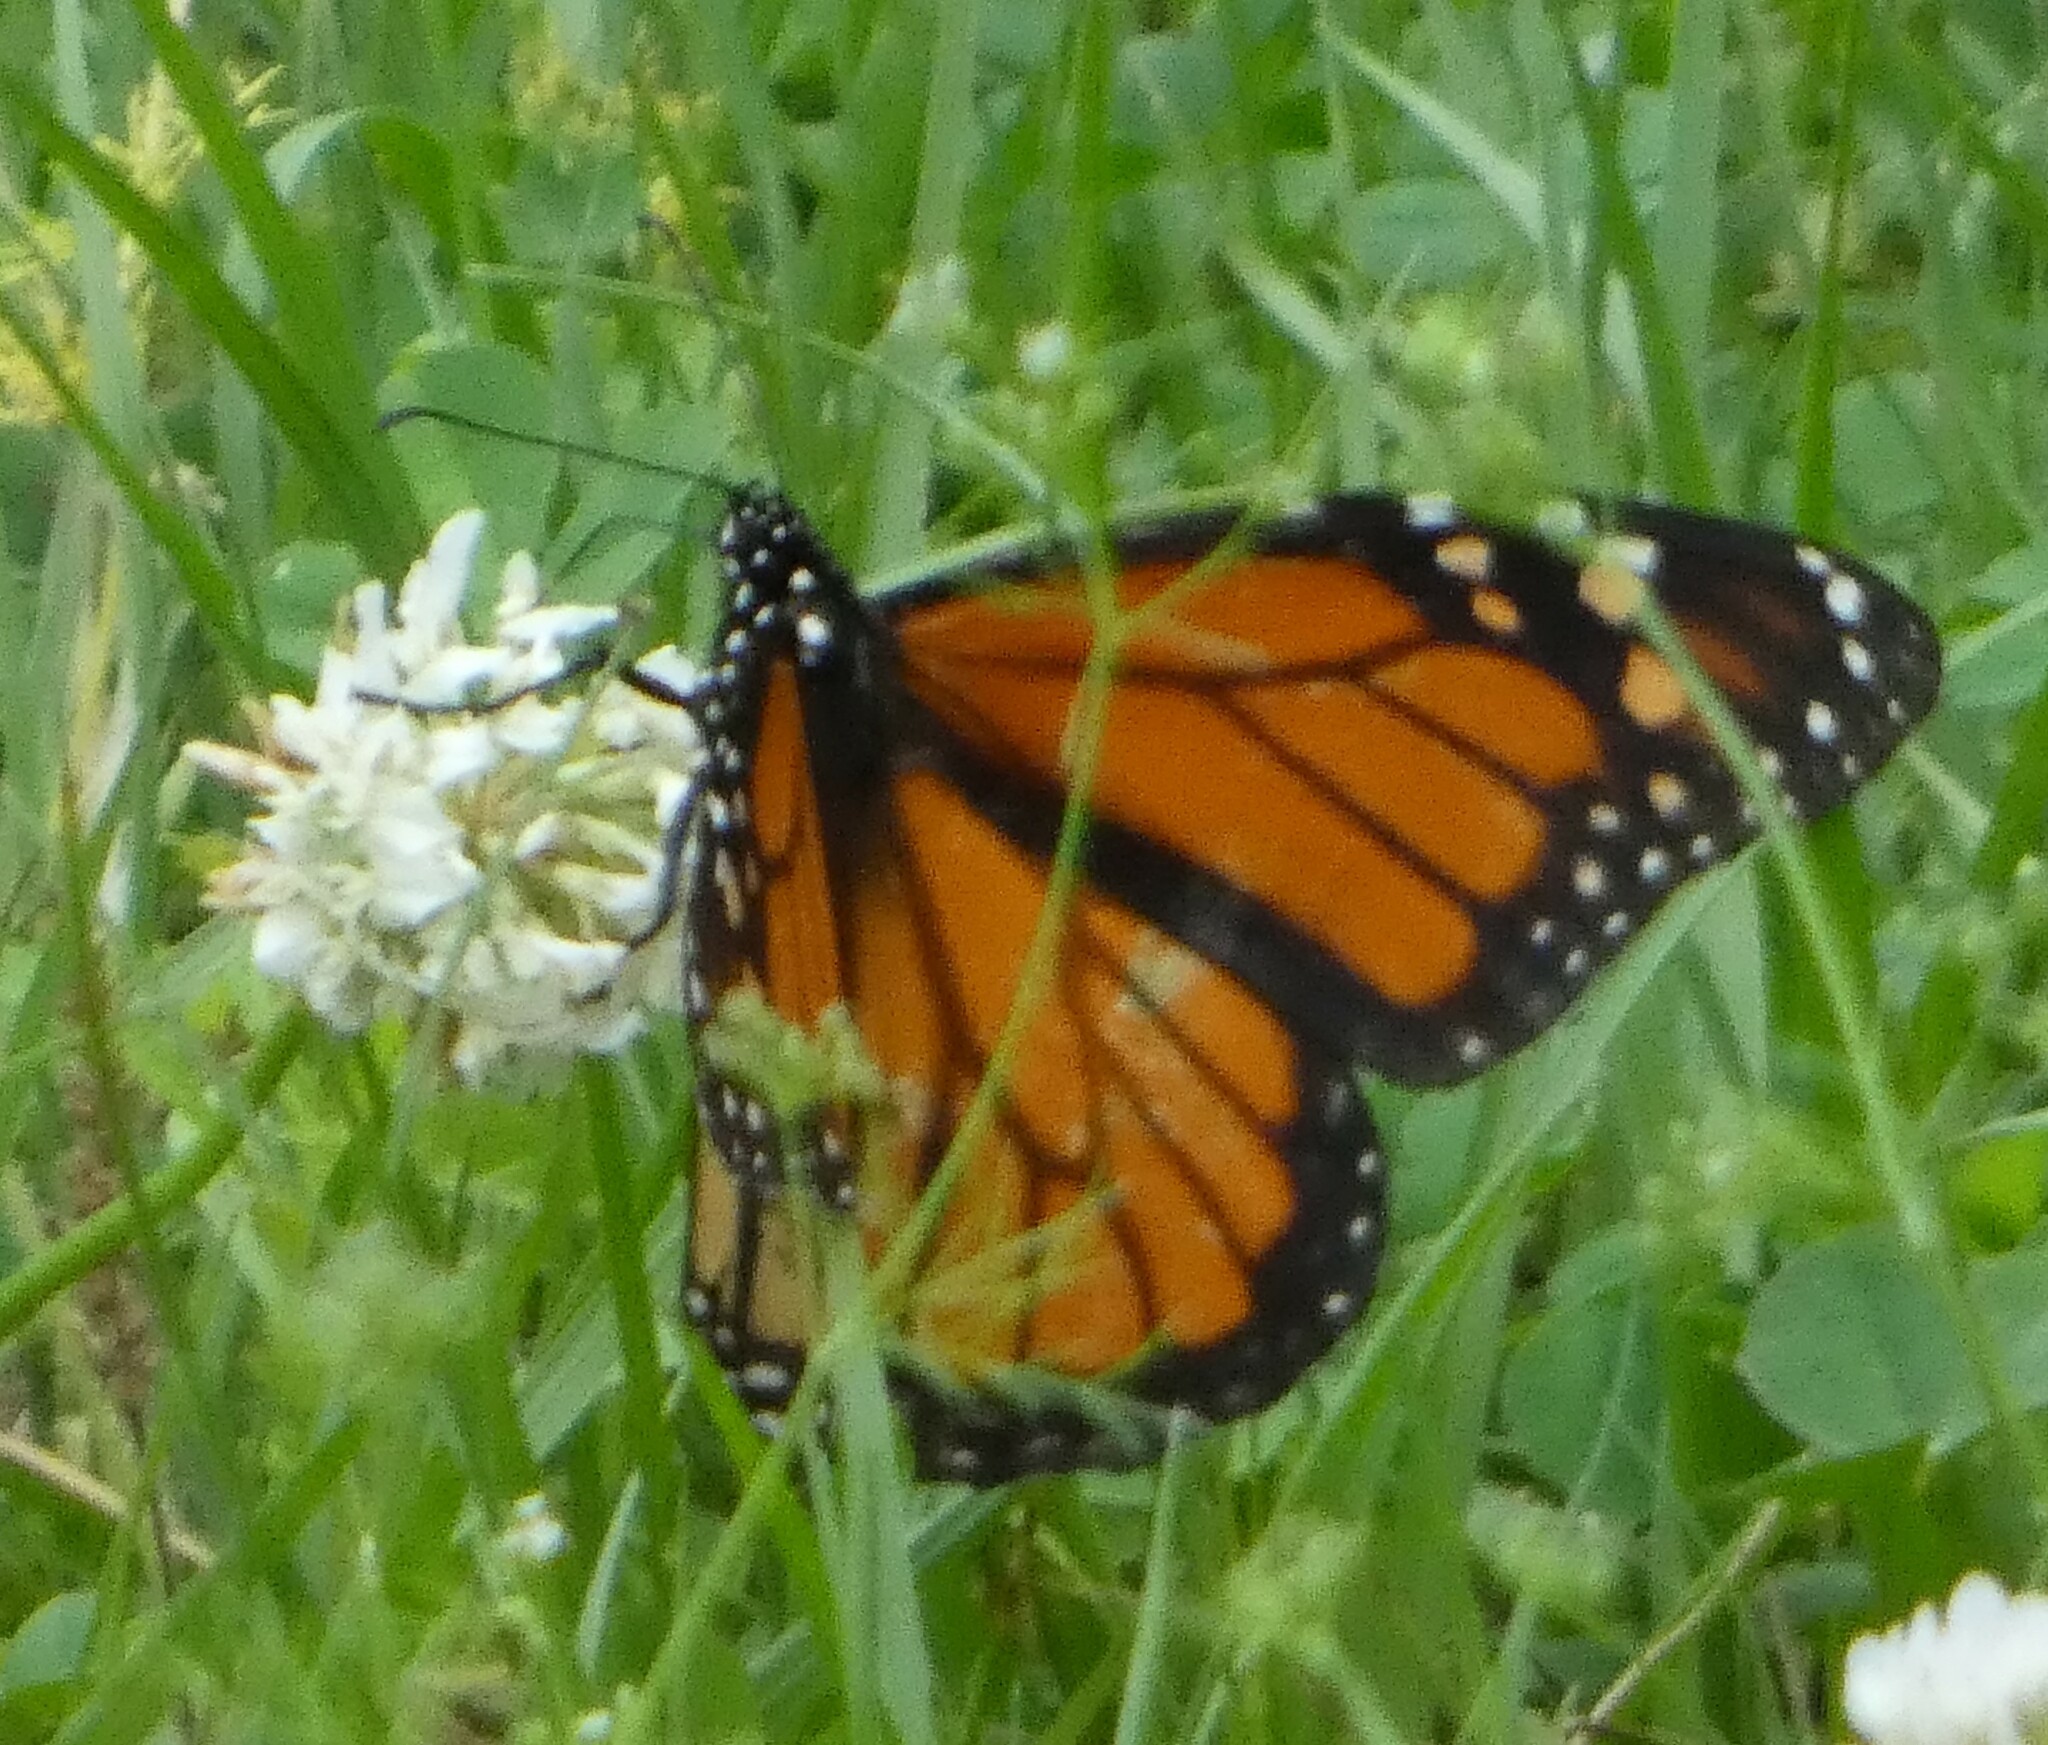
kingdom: Animalia
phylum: Arthropoda
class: Insecta
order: Lepidoptera
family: Nymphalidae
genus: Danaus
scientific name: Danaus plexippus
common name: Monarch
